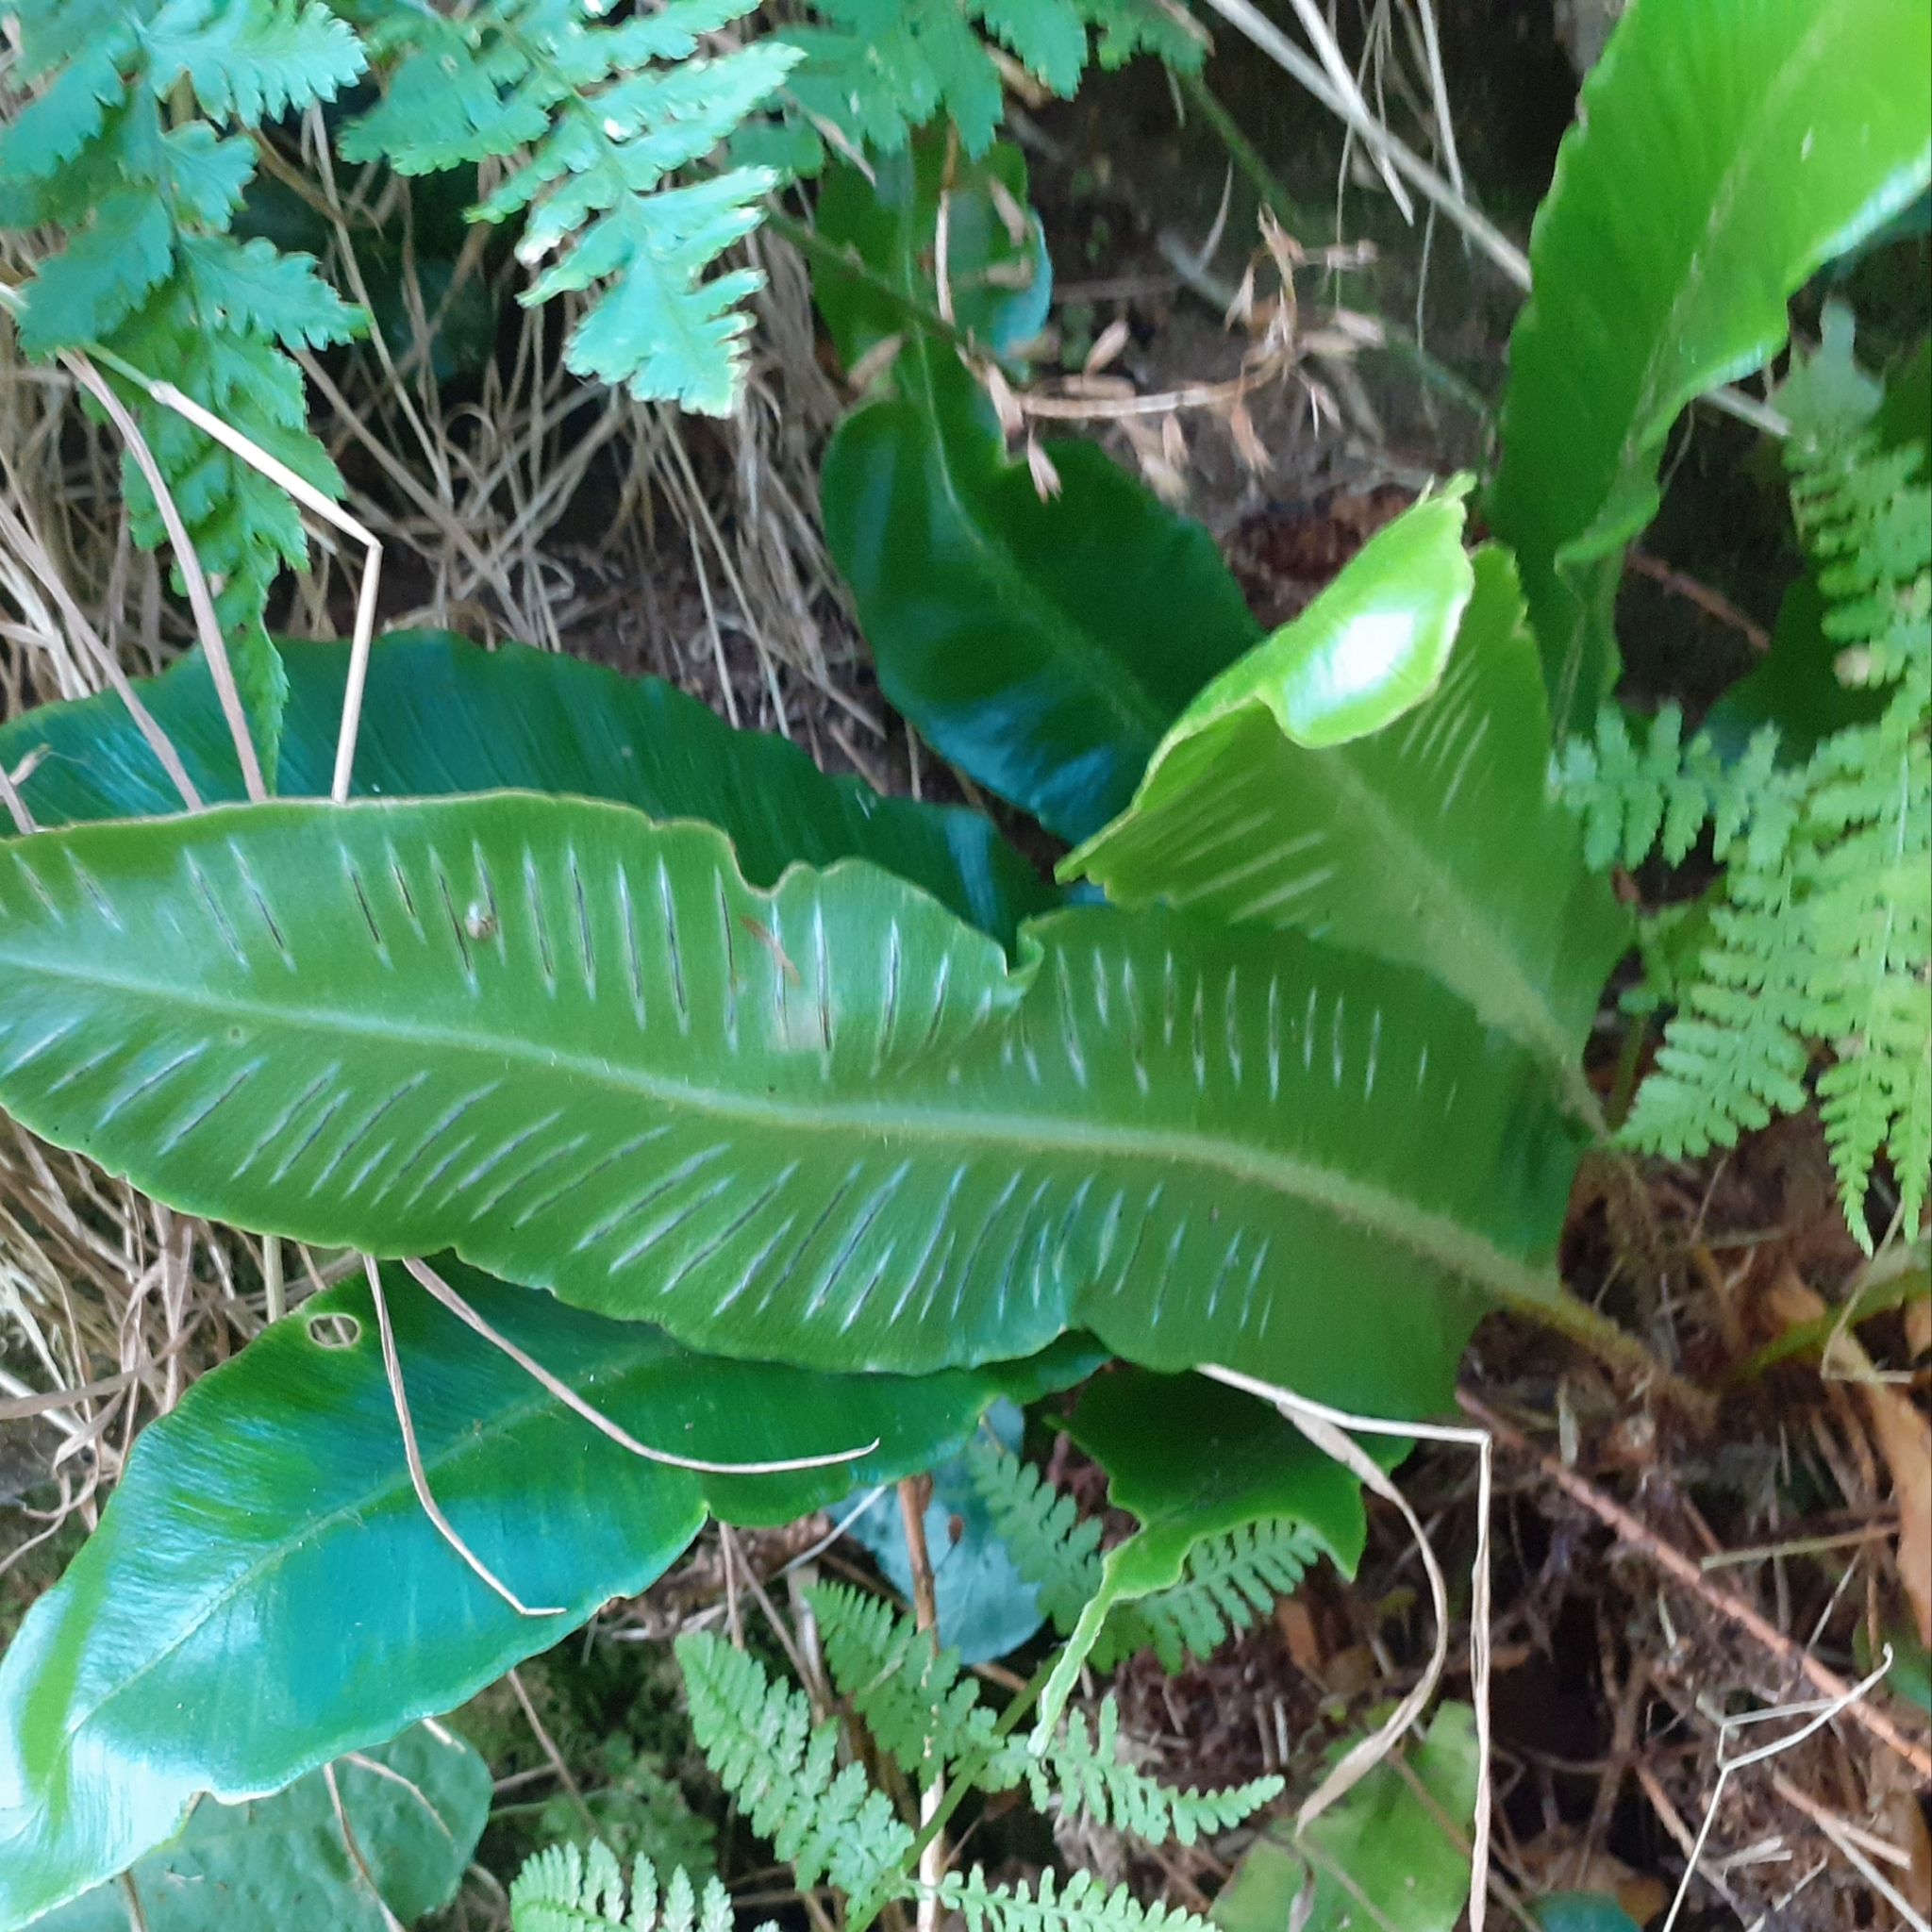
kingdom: Plantae
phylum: Tracheophyta
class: Polypodiopsida
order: Polypodiales
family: Aspleniaceae
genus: Asplenium
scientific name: Asplenium scolopendrium
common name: Hart's-tongue fern
